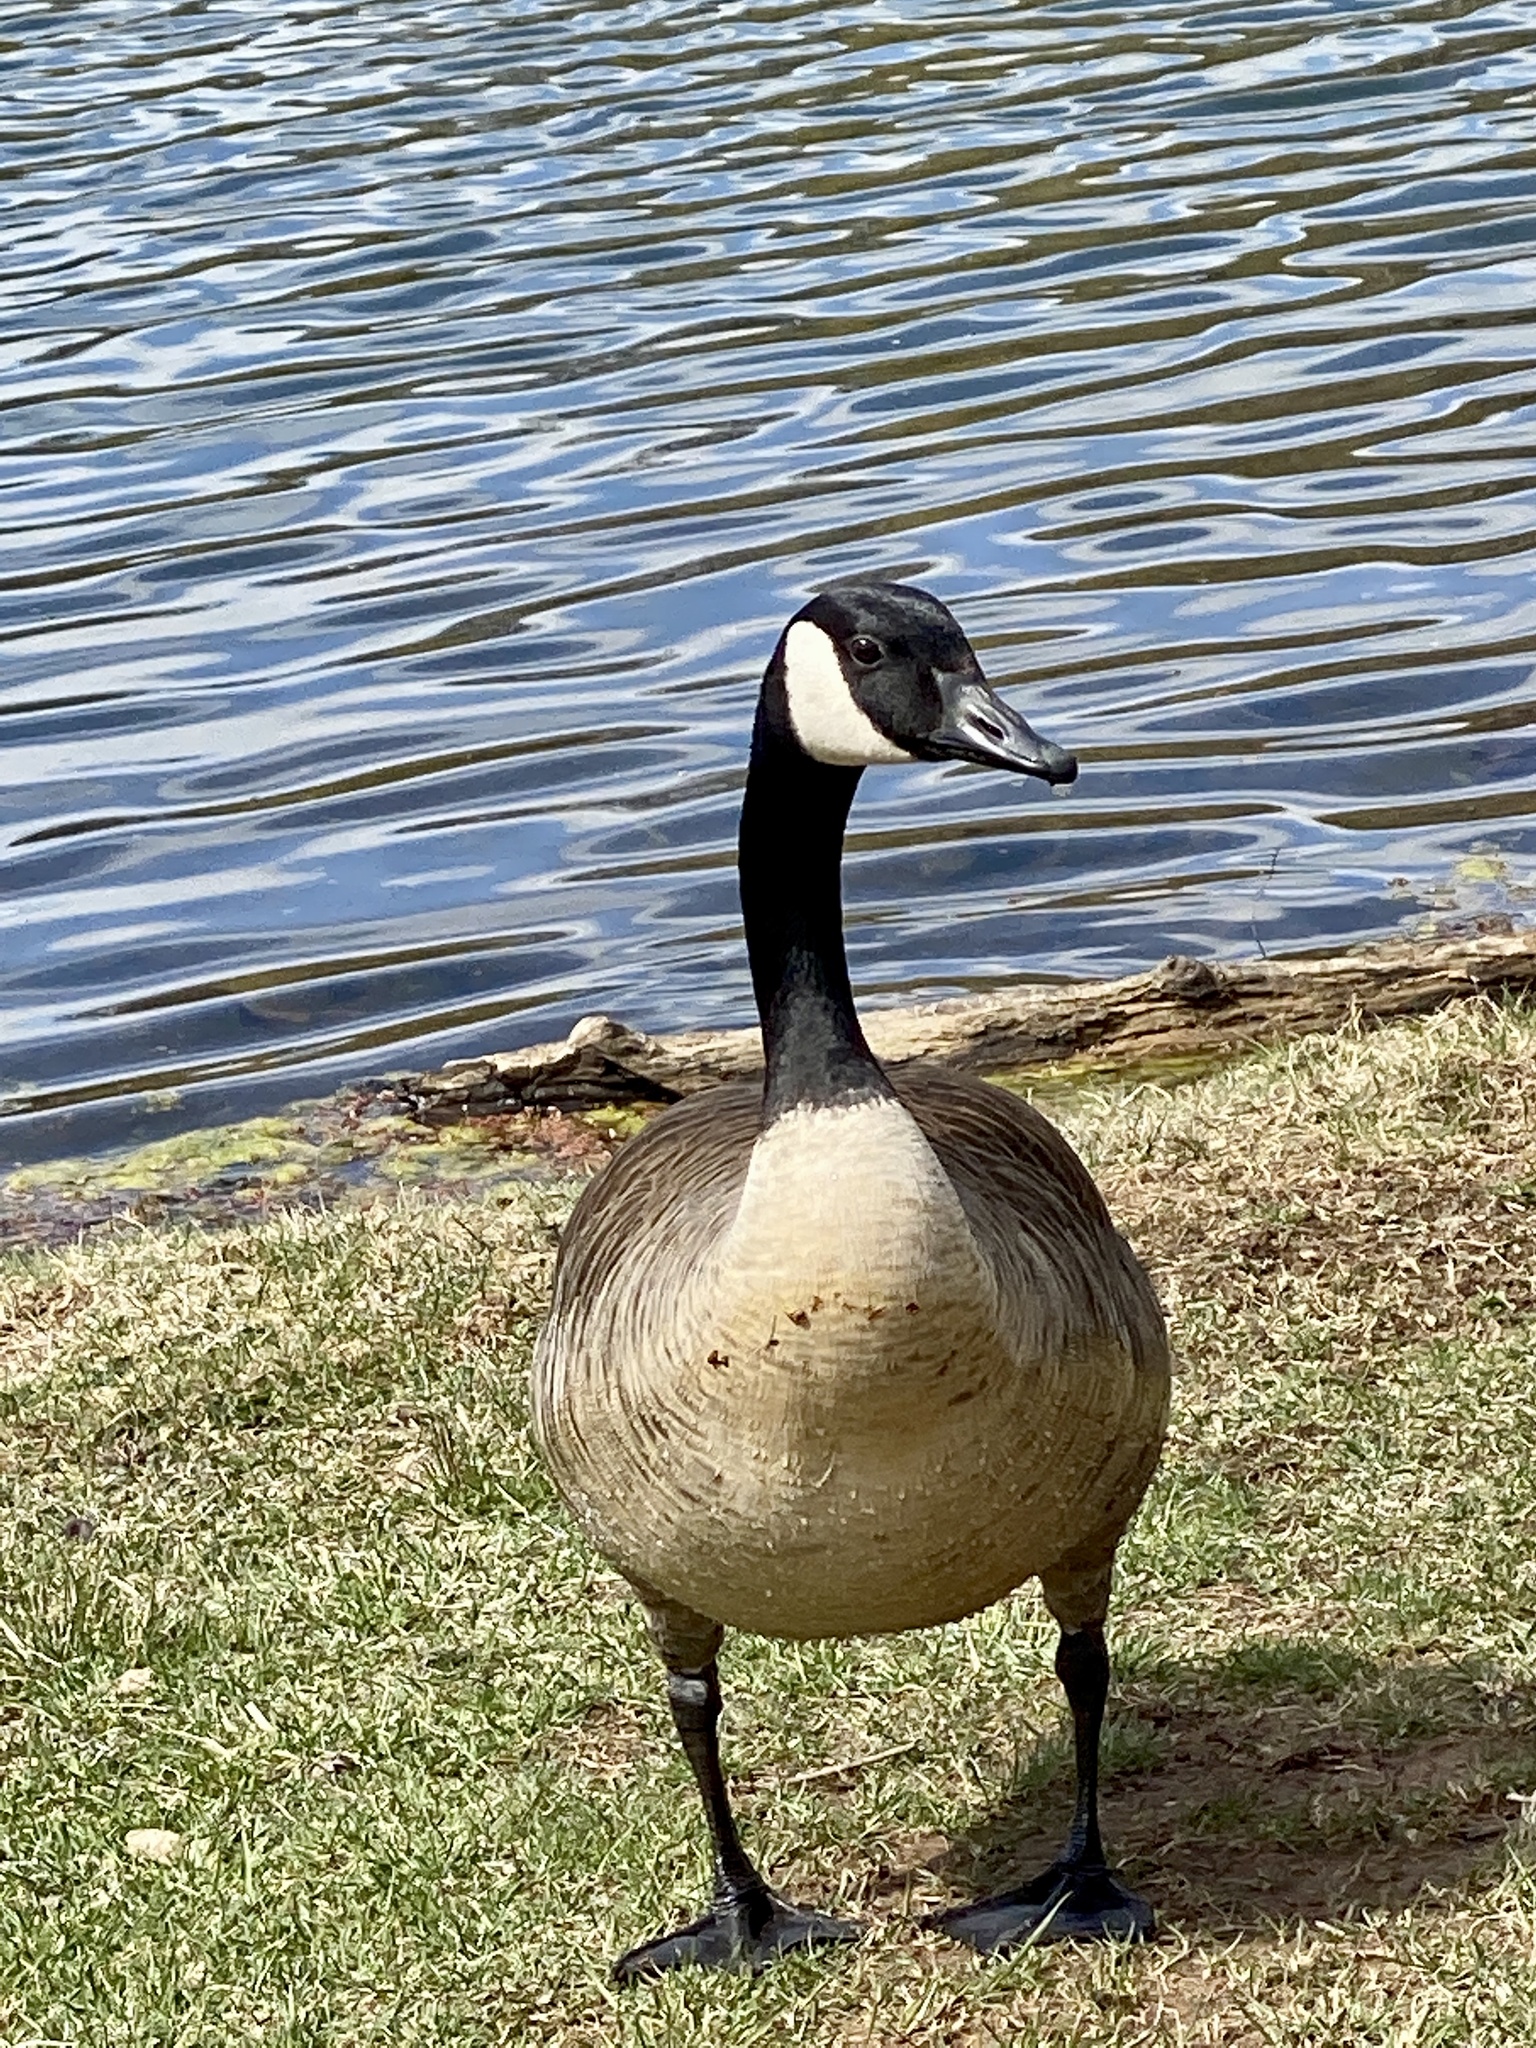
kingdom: Animalia
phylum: Chordata
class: Aves
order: Anseriformes
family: Anatidae
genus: Branta
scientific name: Branta canadensis
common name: Canada goose
